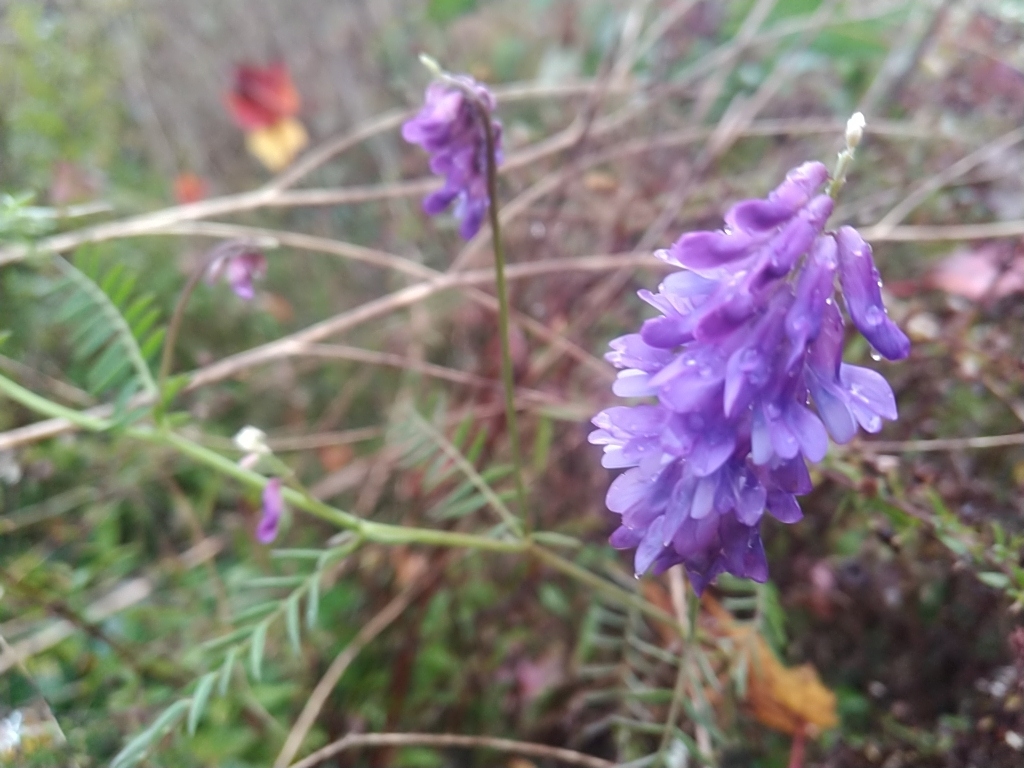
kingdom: Plantae
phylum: Tracheophyta
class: Magnoliopsida
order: Fabales
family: Fabaceae
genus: Vicia
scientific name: Vicia cracca
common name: Bird vetch
